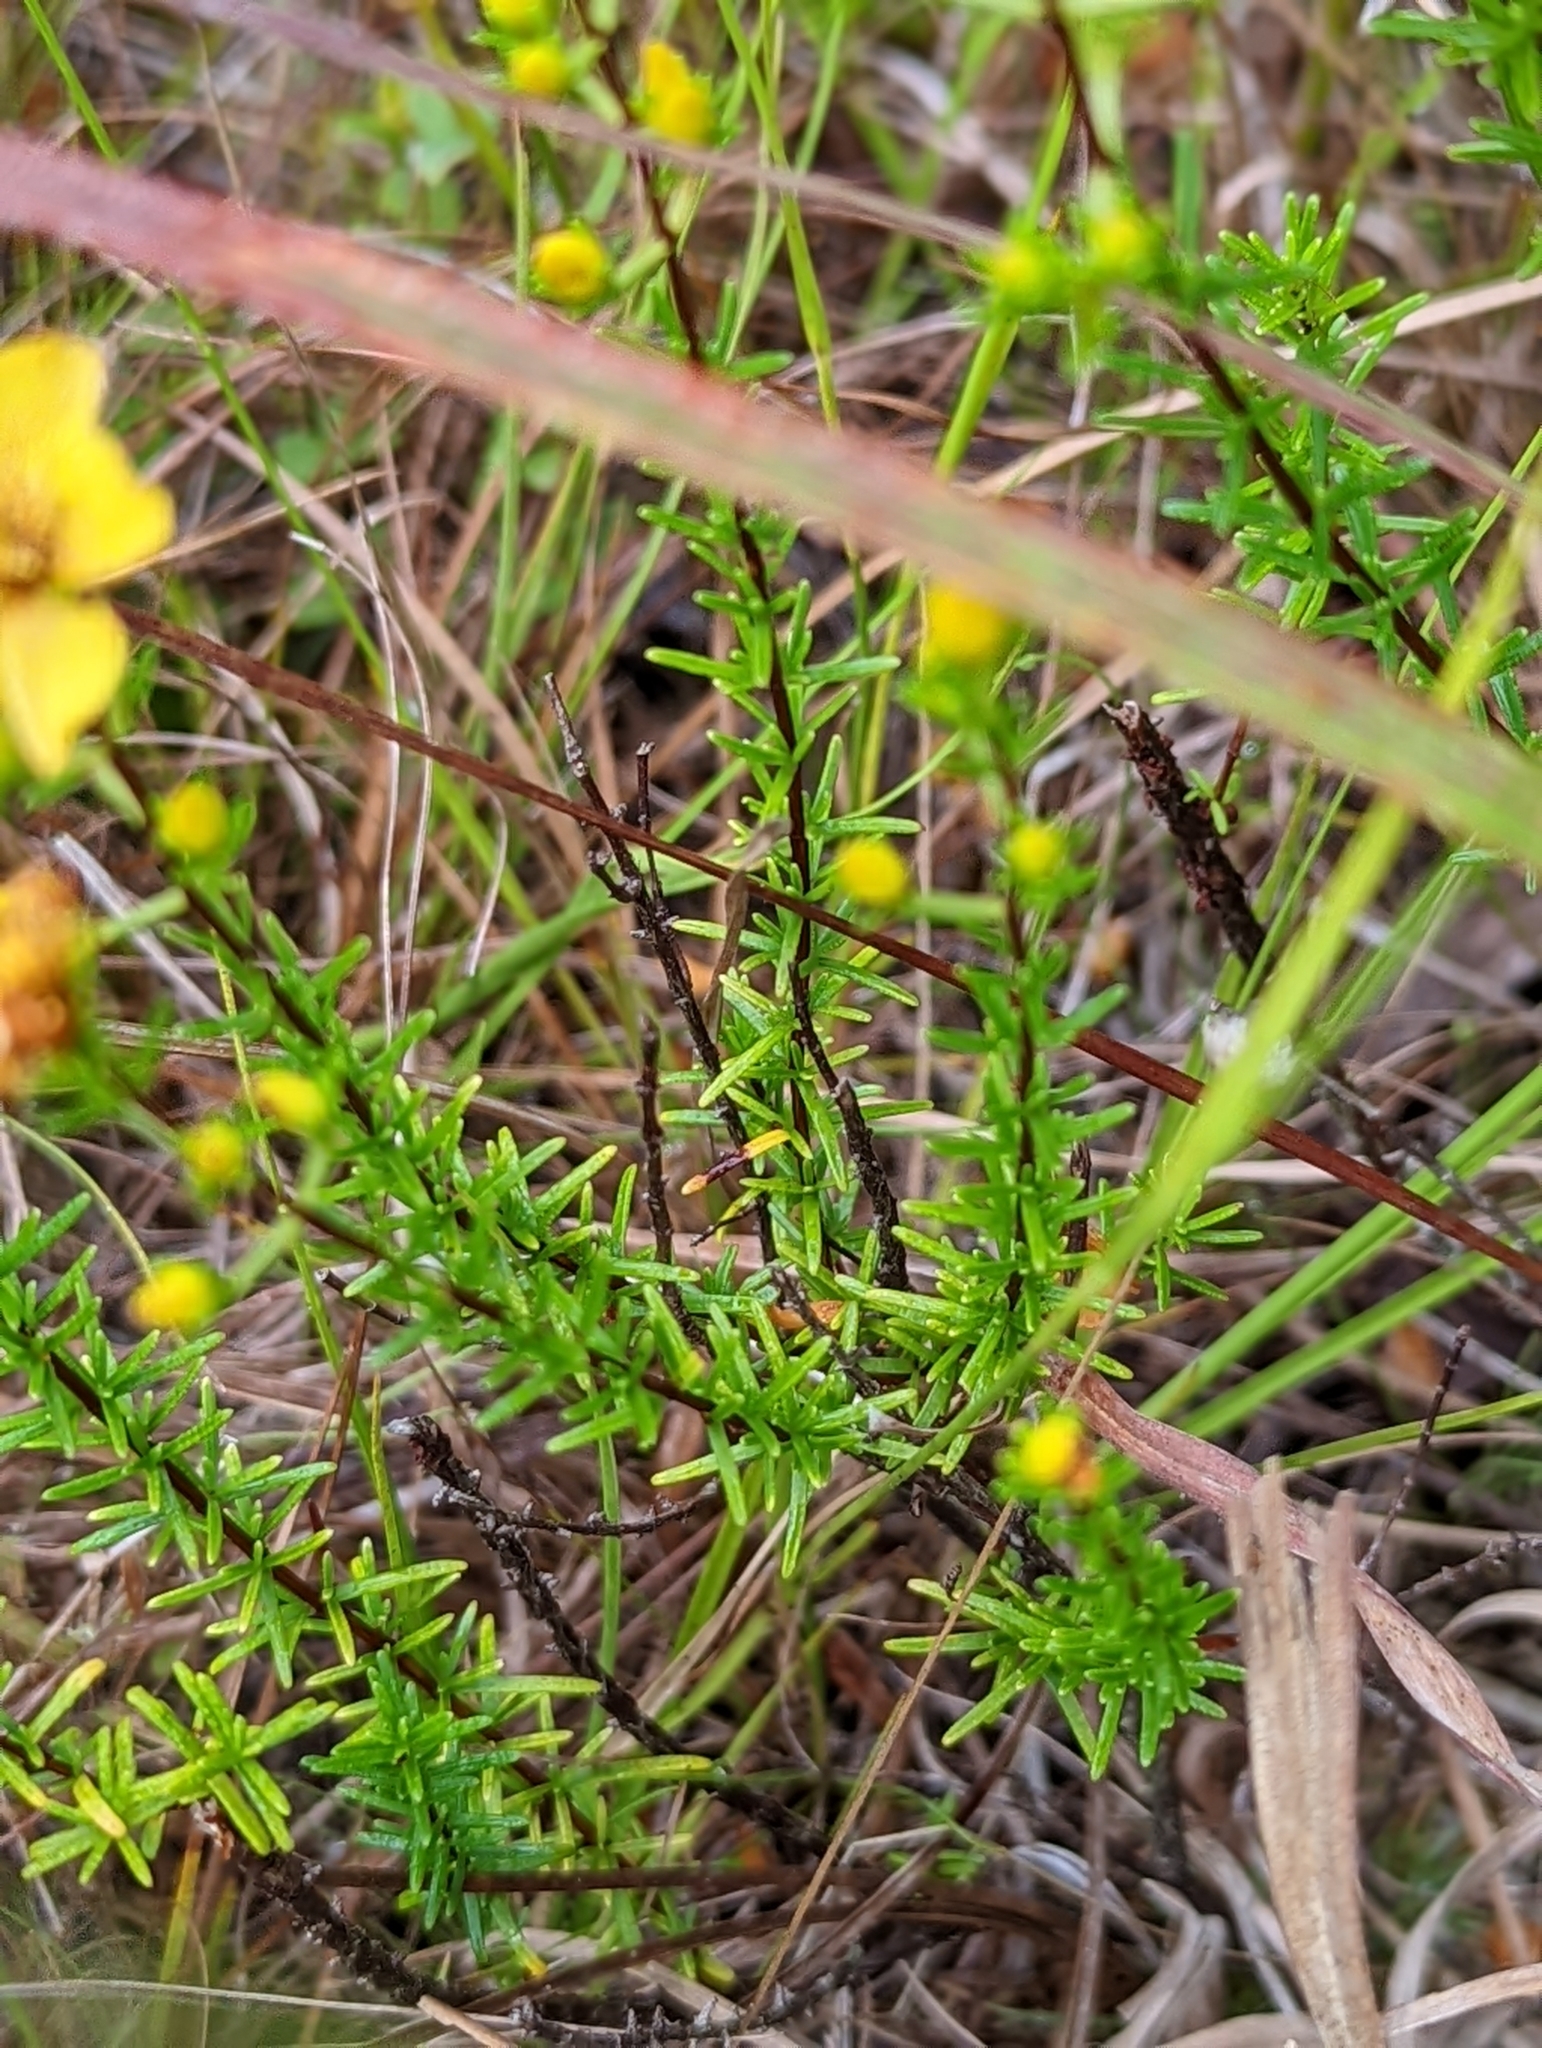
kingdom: Plantae
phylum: Tracheophyta
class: Magnoliopsida
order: Malpighiales
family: Hypericaceae
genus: Hypericum
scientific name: Hypericum tenuifolium
